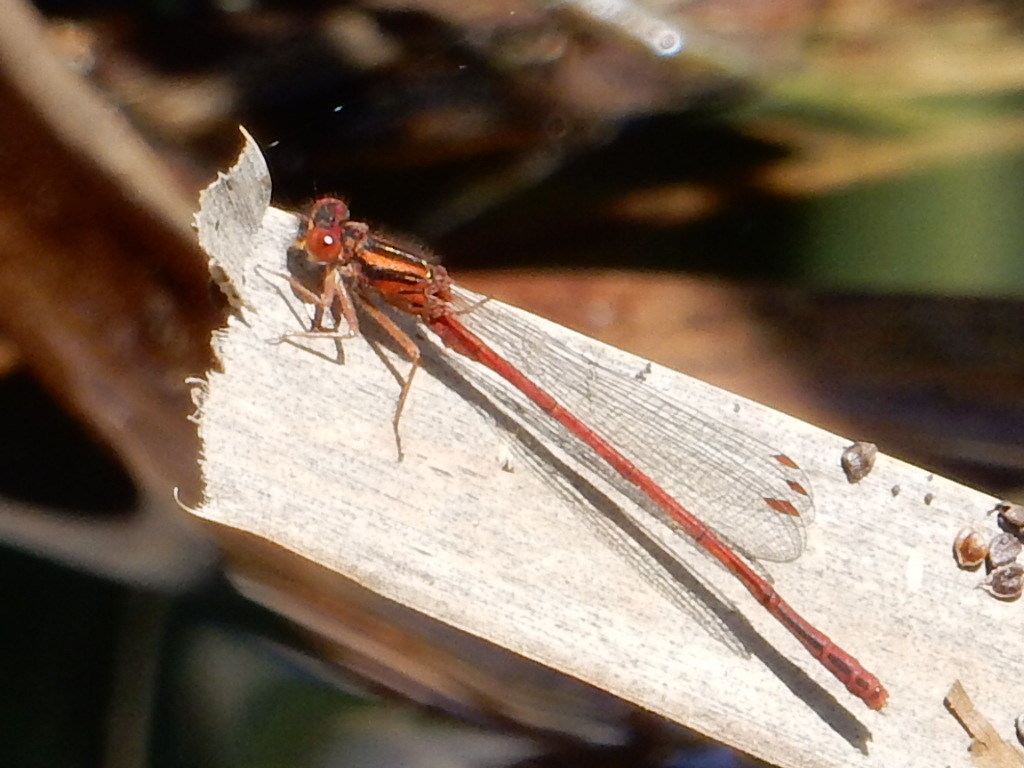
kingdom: Animalia
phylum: Arthropoda
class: Insecta
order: Odonata
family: Coenagrionidae
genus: Xanthocnemis
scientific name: Xanthocnemis zealandica
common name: Common redcoat damselfly
